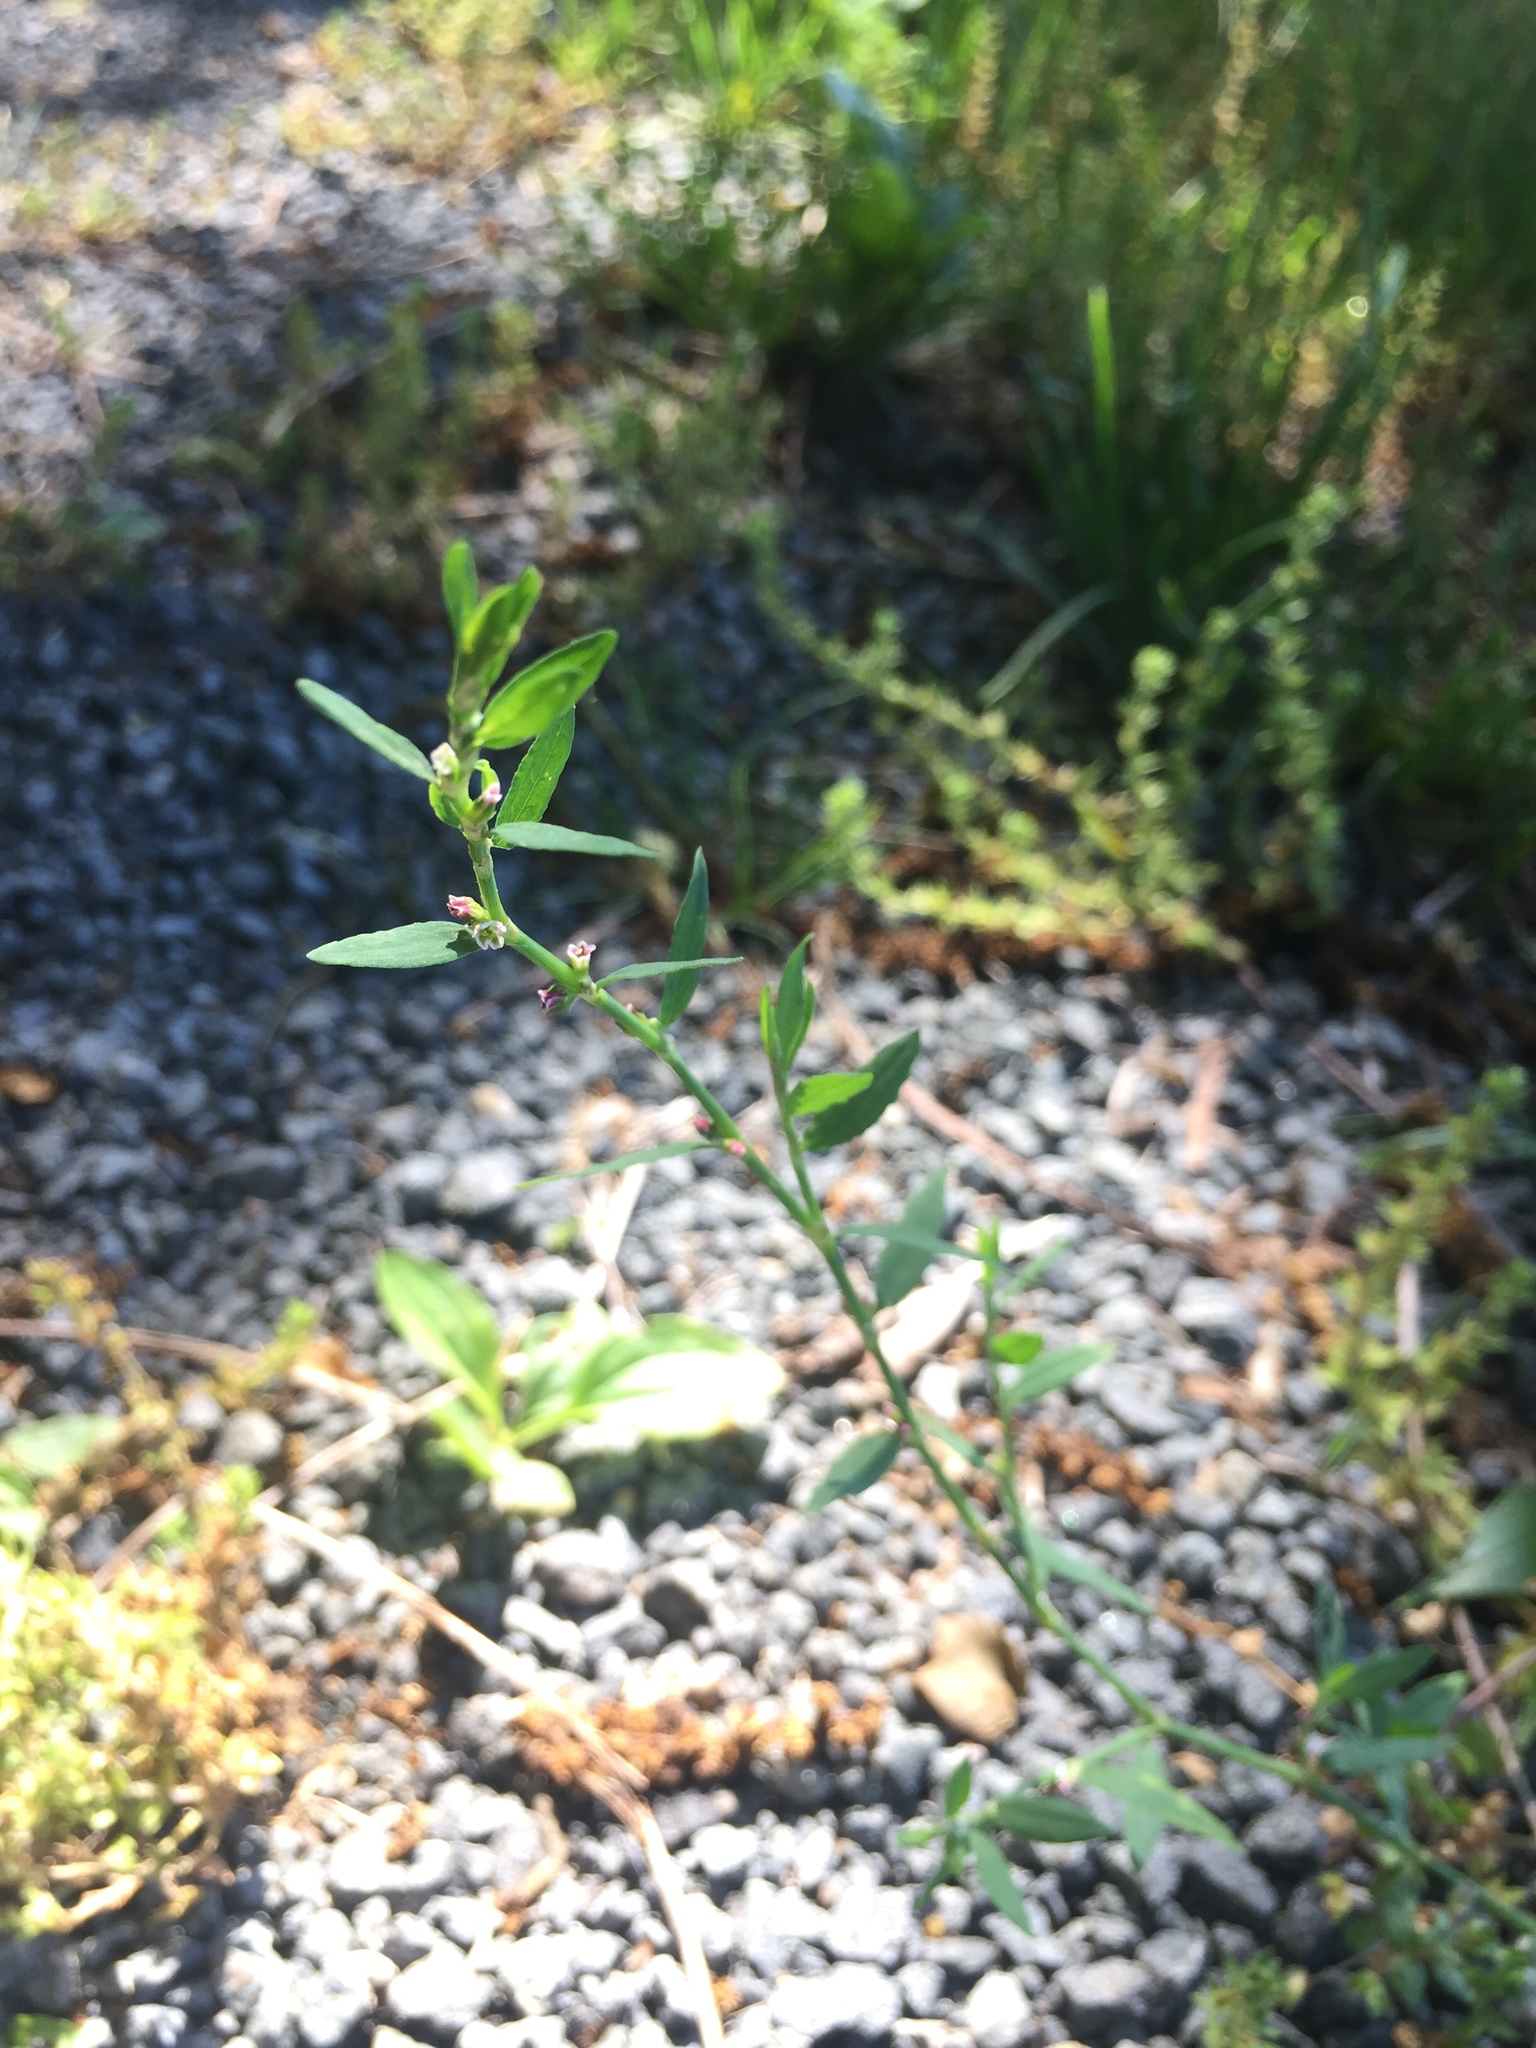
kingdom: Plantae
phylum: Tracheophyta
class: Magnoliopsida
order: Caryophyllales
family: Polygonaceae
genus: Polygonum
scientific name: Polygonum aviculare
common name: Prostrate knotweed
